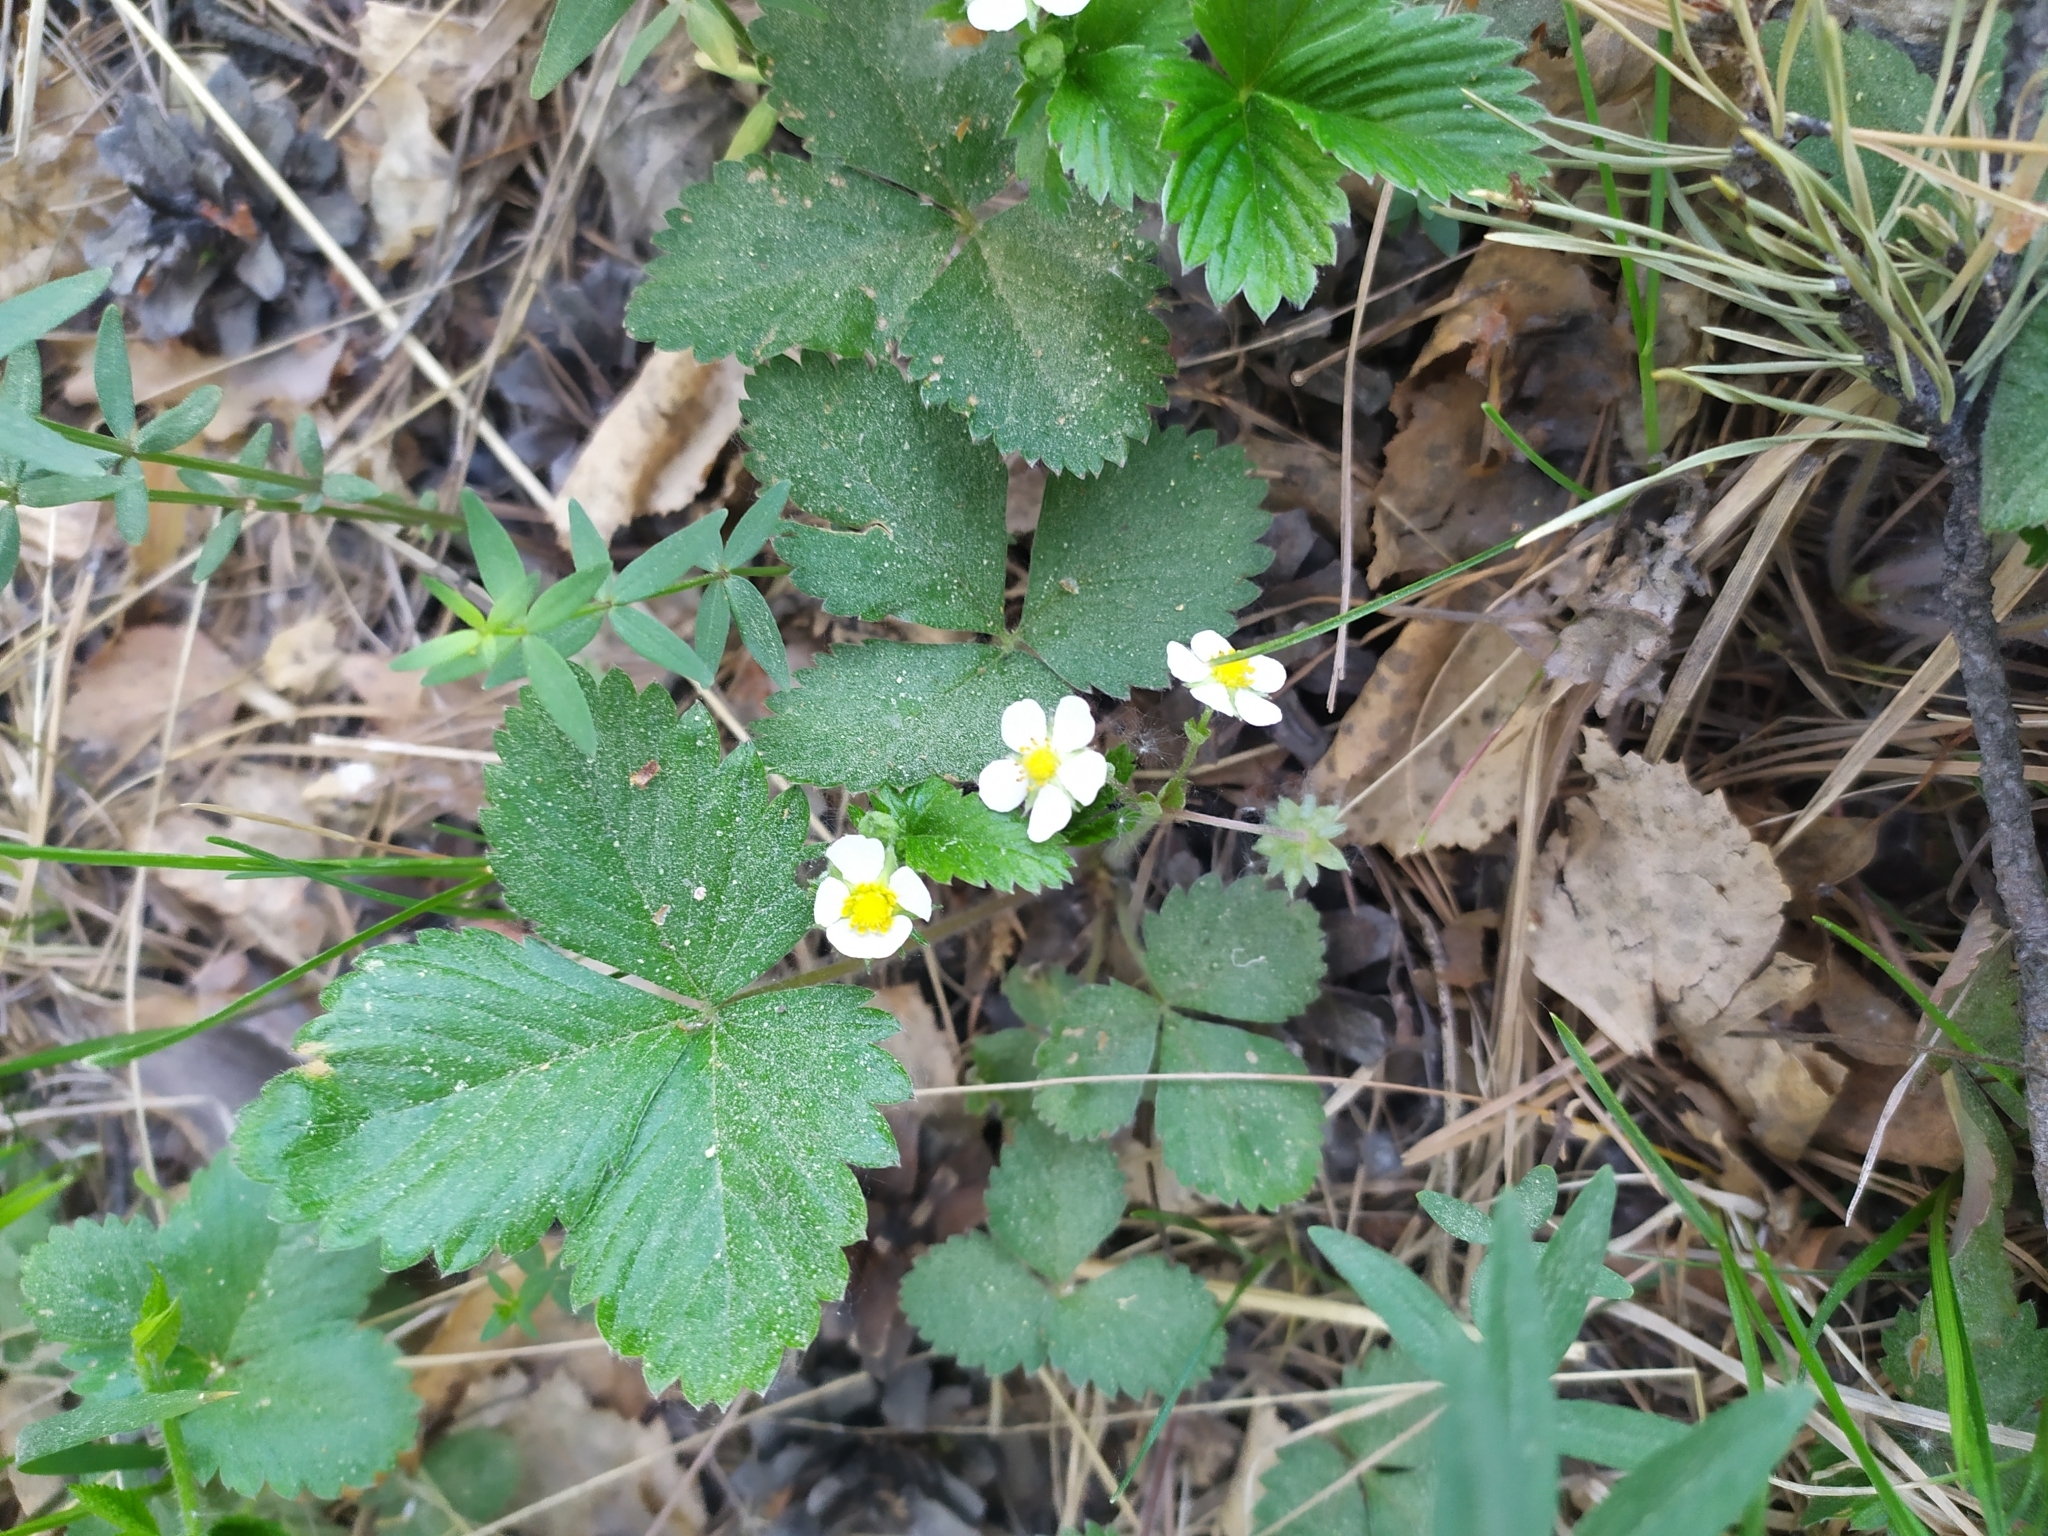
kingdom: Plantae
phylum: Tracheophyta
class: Magnoliopsida
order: Rosales
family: Rosaceae
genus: Fragaria
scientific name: Fragaria vesca
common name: Wild strawberry
